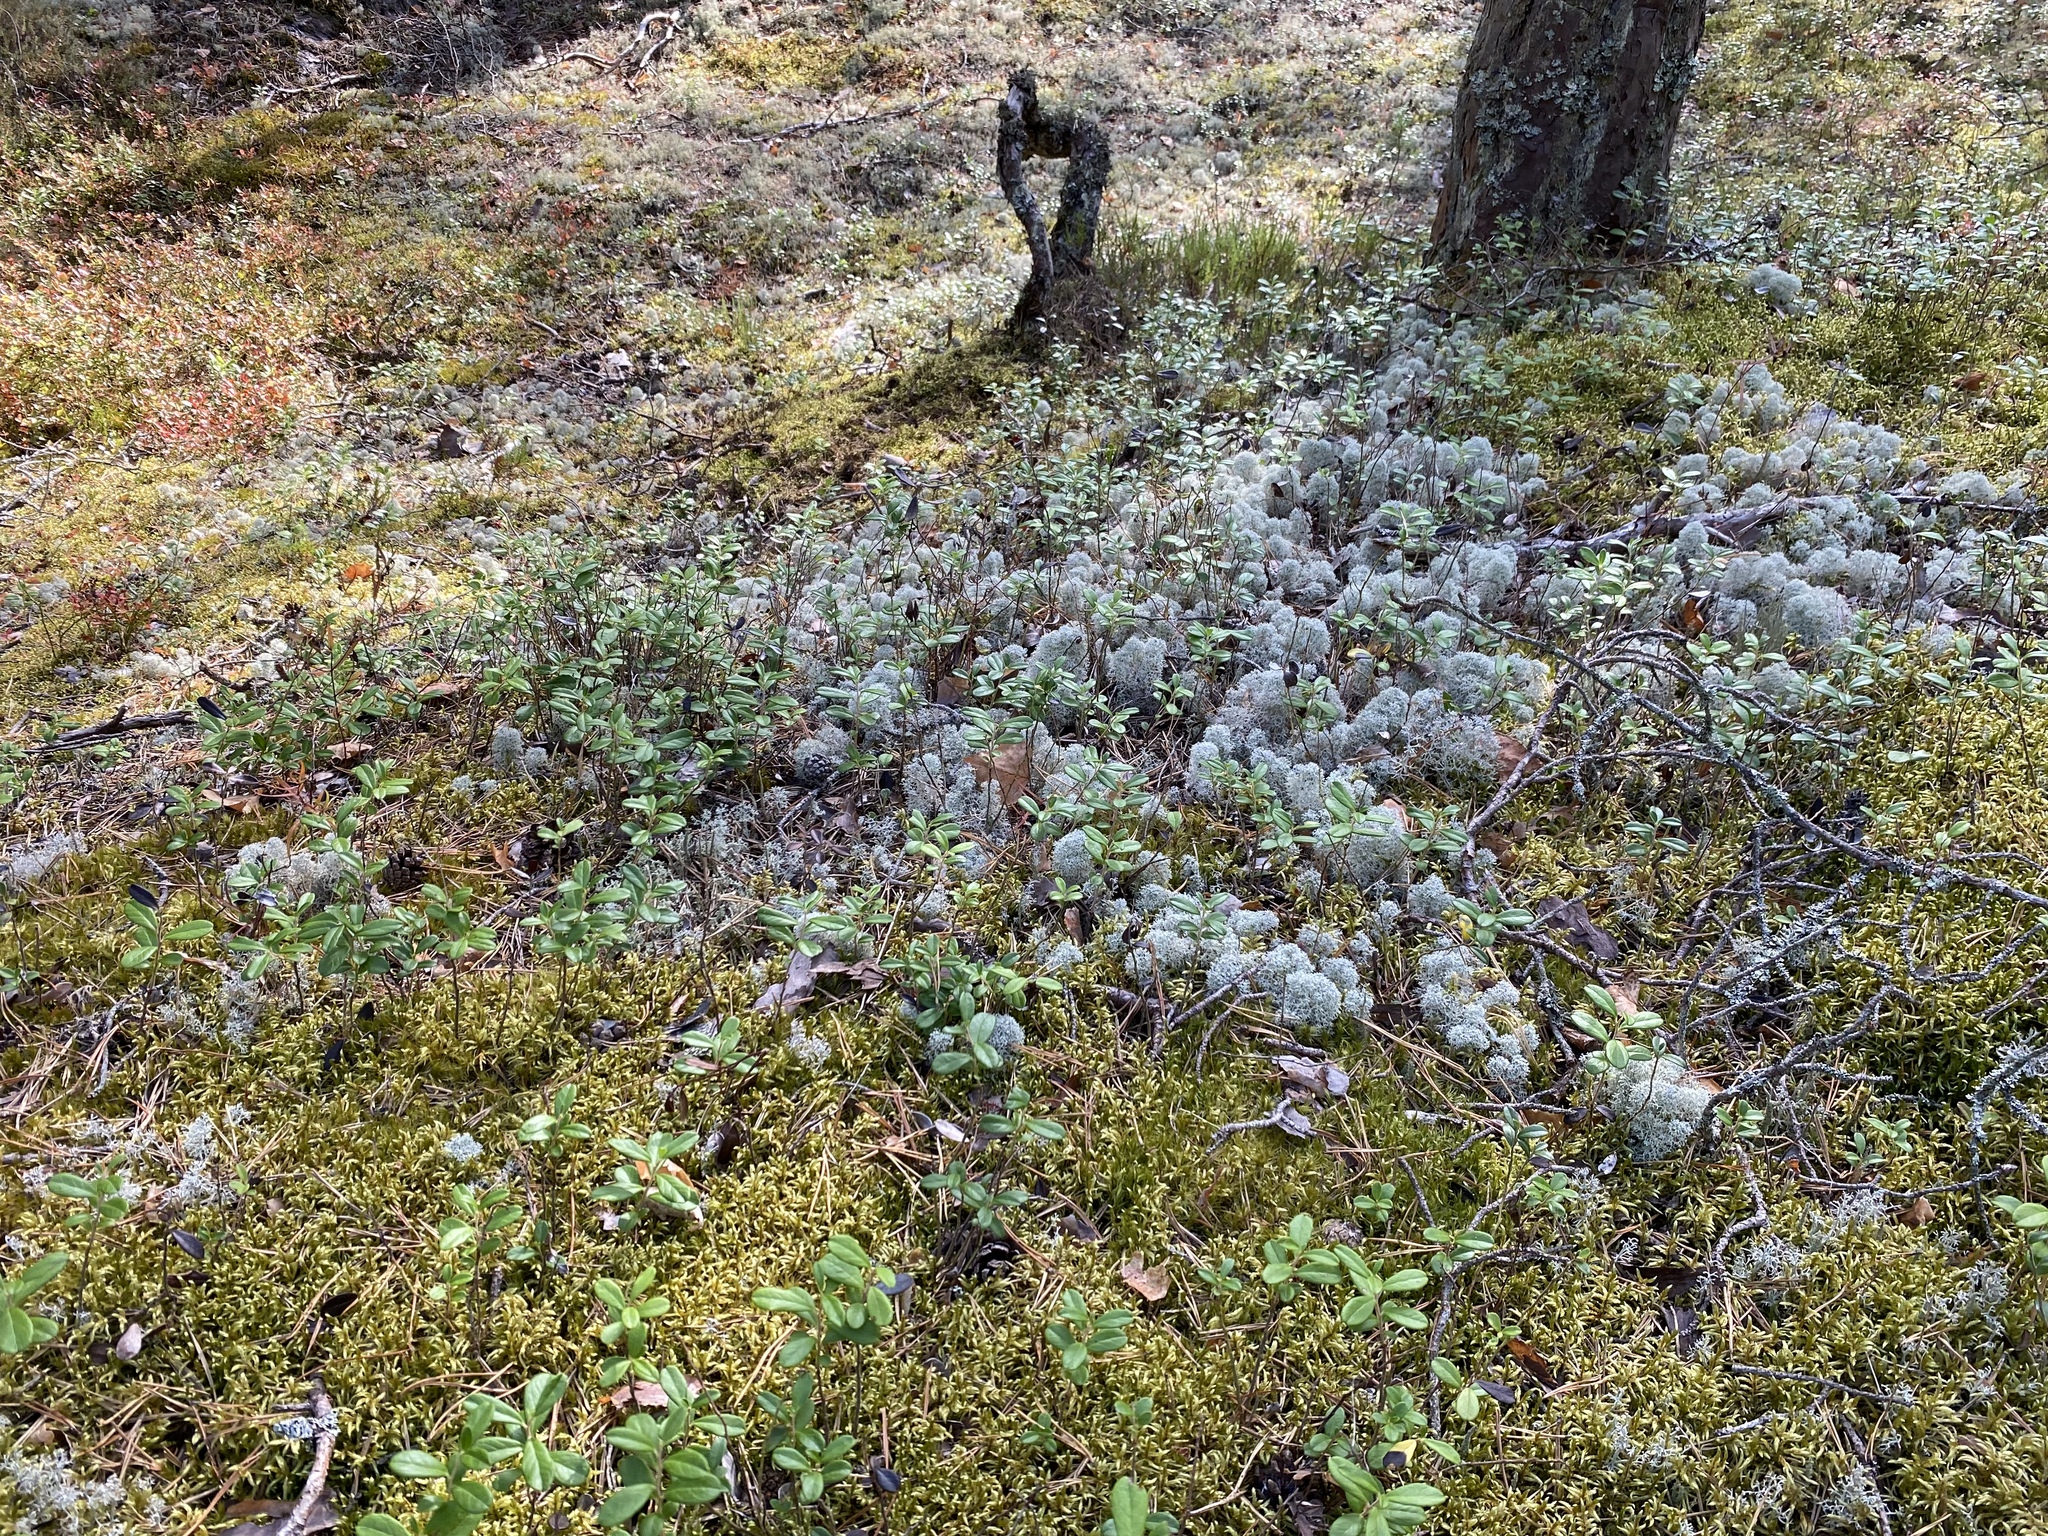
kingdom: Fungi
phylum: Ascomycota
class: Lecanoromycetes
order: Lecanorales
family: Cladoniaceae
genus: Cladonia
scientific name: Cladonia stellaris
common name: Star-tipped reindeer lichen
